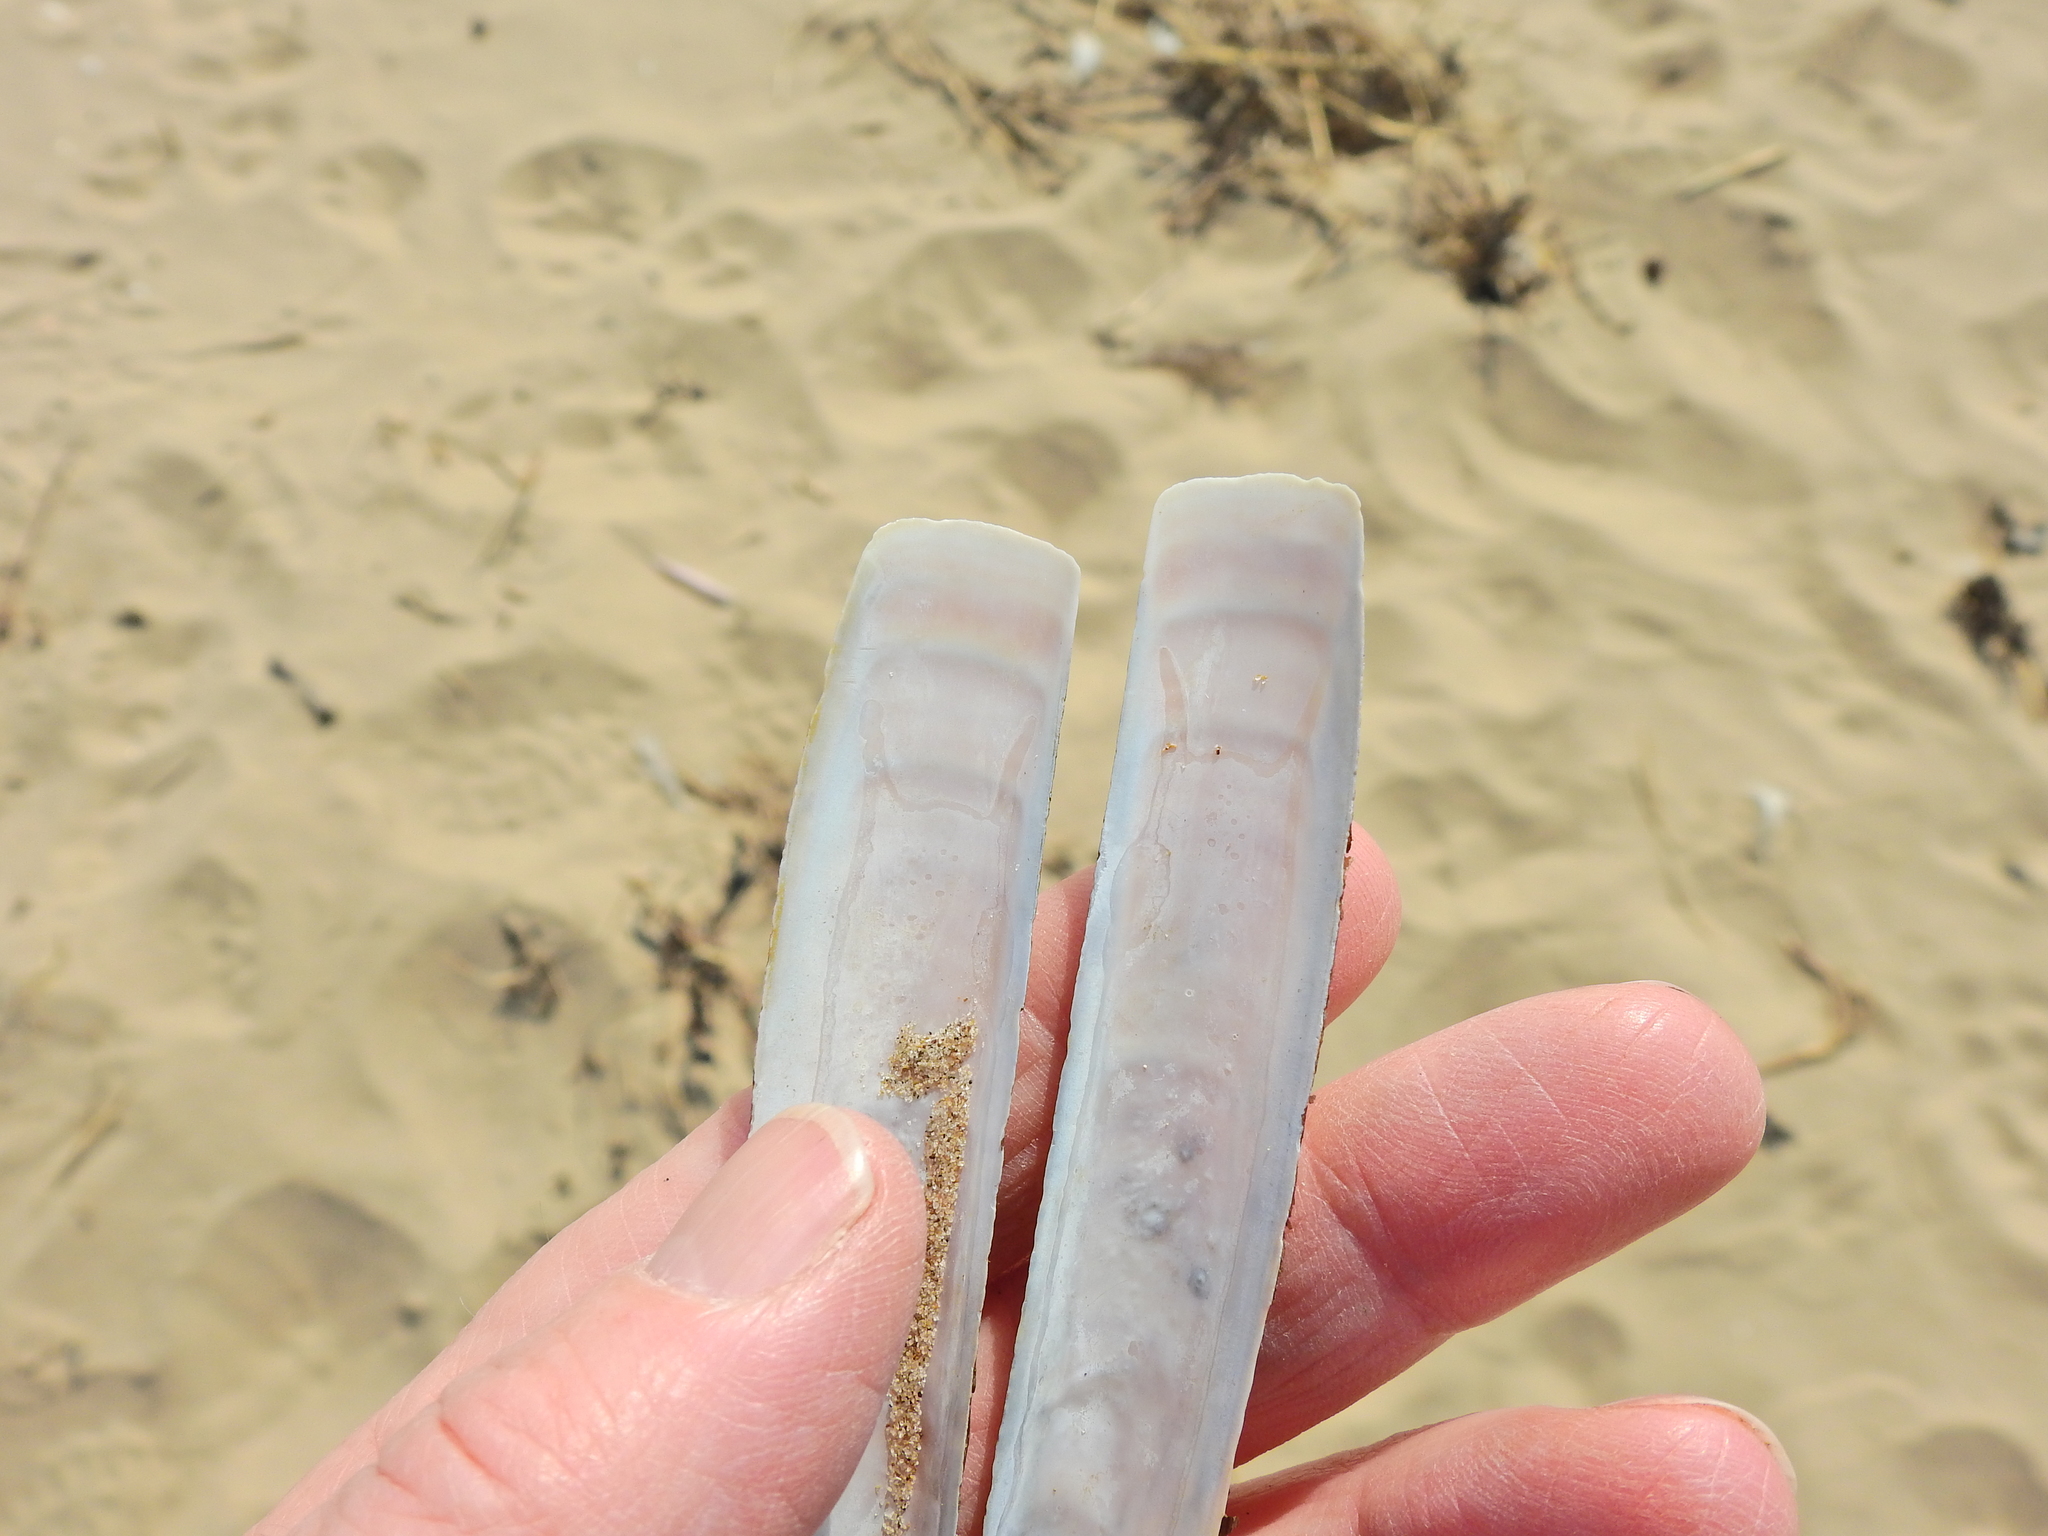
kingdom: Animalia
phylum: Mollusca
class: Bivalvia
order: Adapedonta
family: Pharidae
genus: Ensis
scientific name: Ensis leei
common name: American jack knife clam
